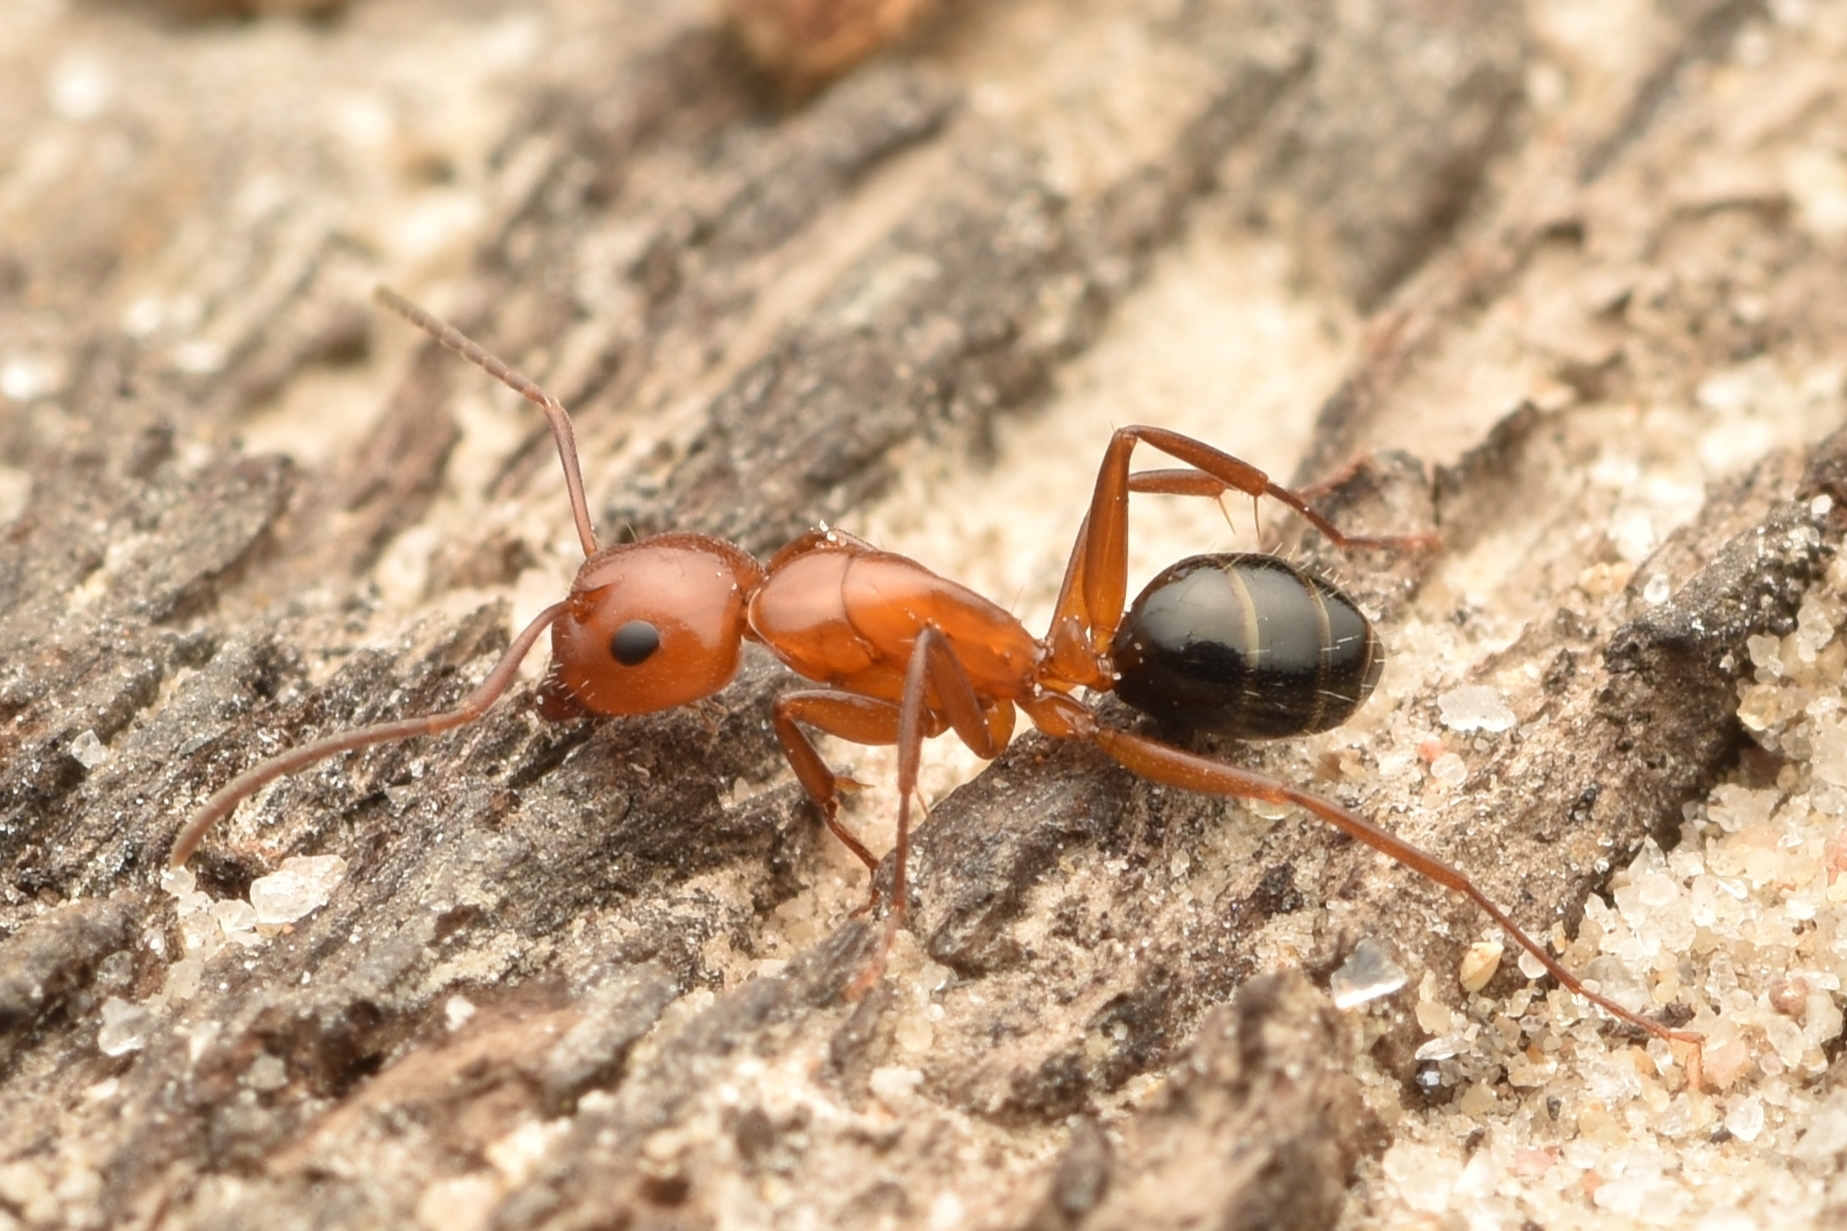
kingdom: Animalia
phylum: Arthropoda
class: Insecta
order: Hymenoptera
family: Formicidae
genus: Camponotus
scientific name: Camponotus discolor
